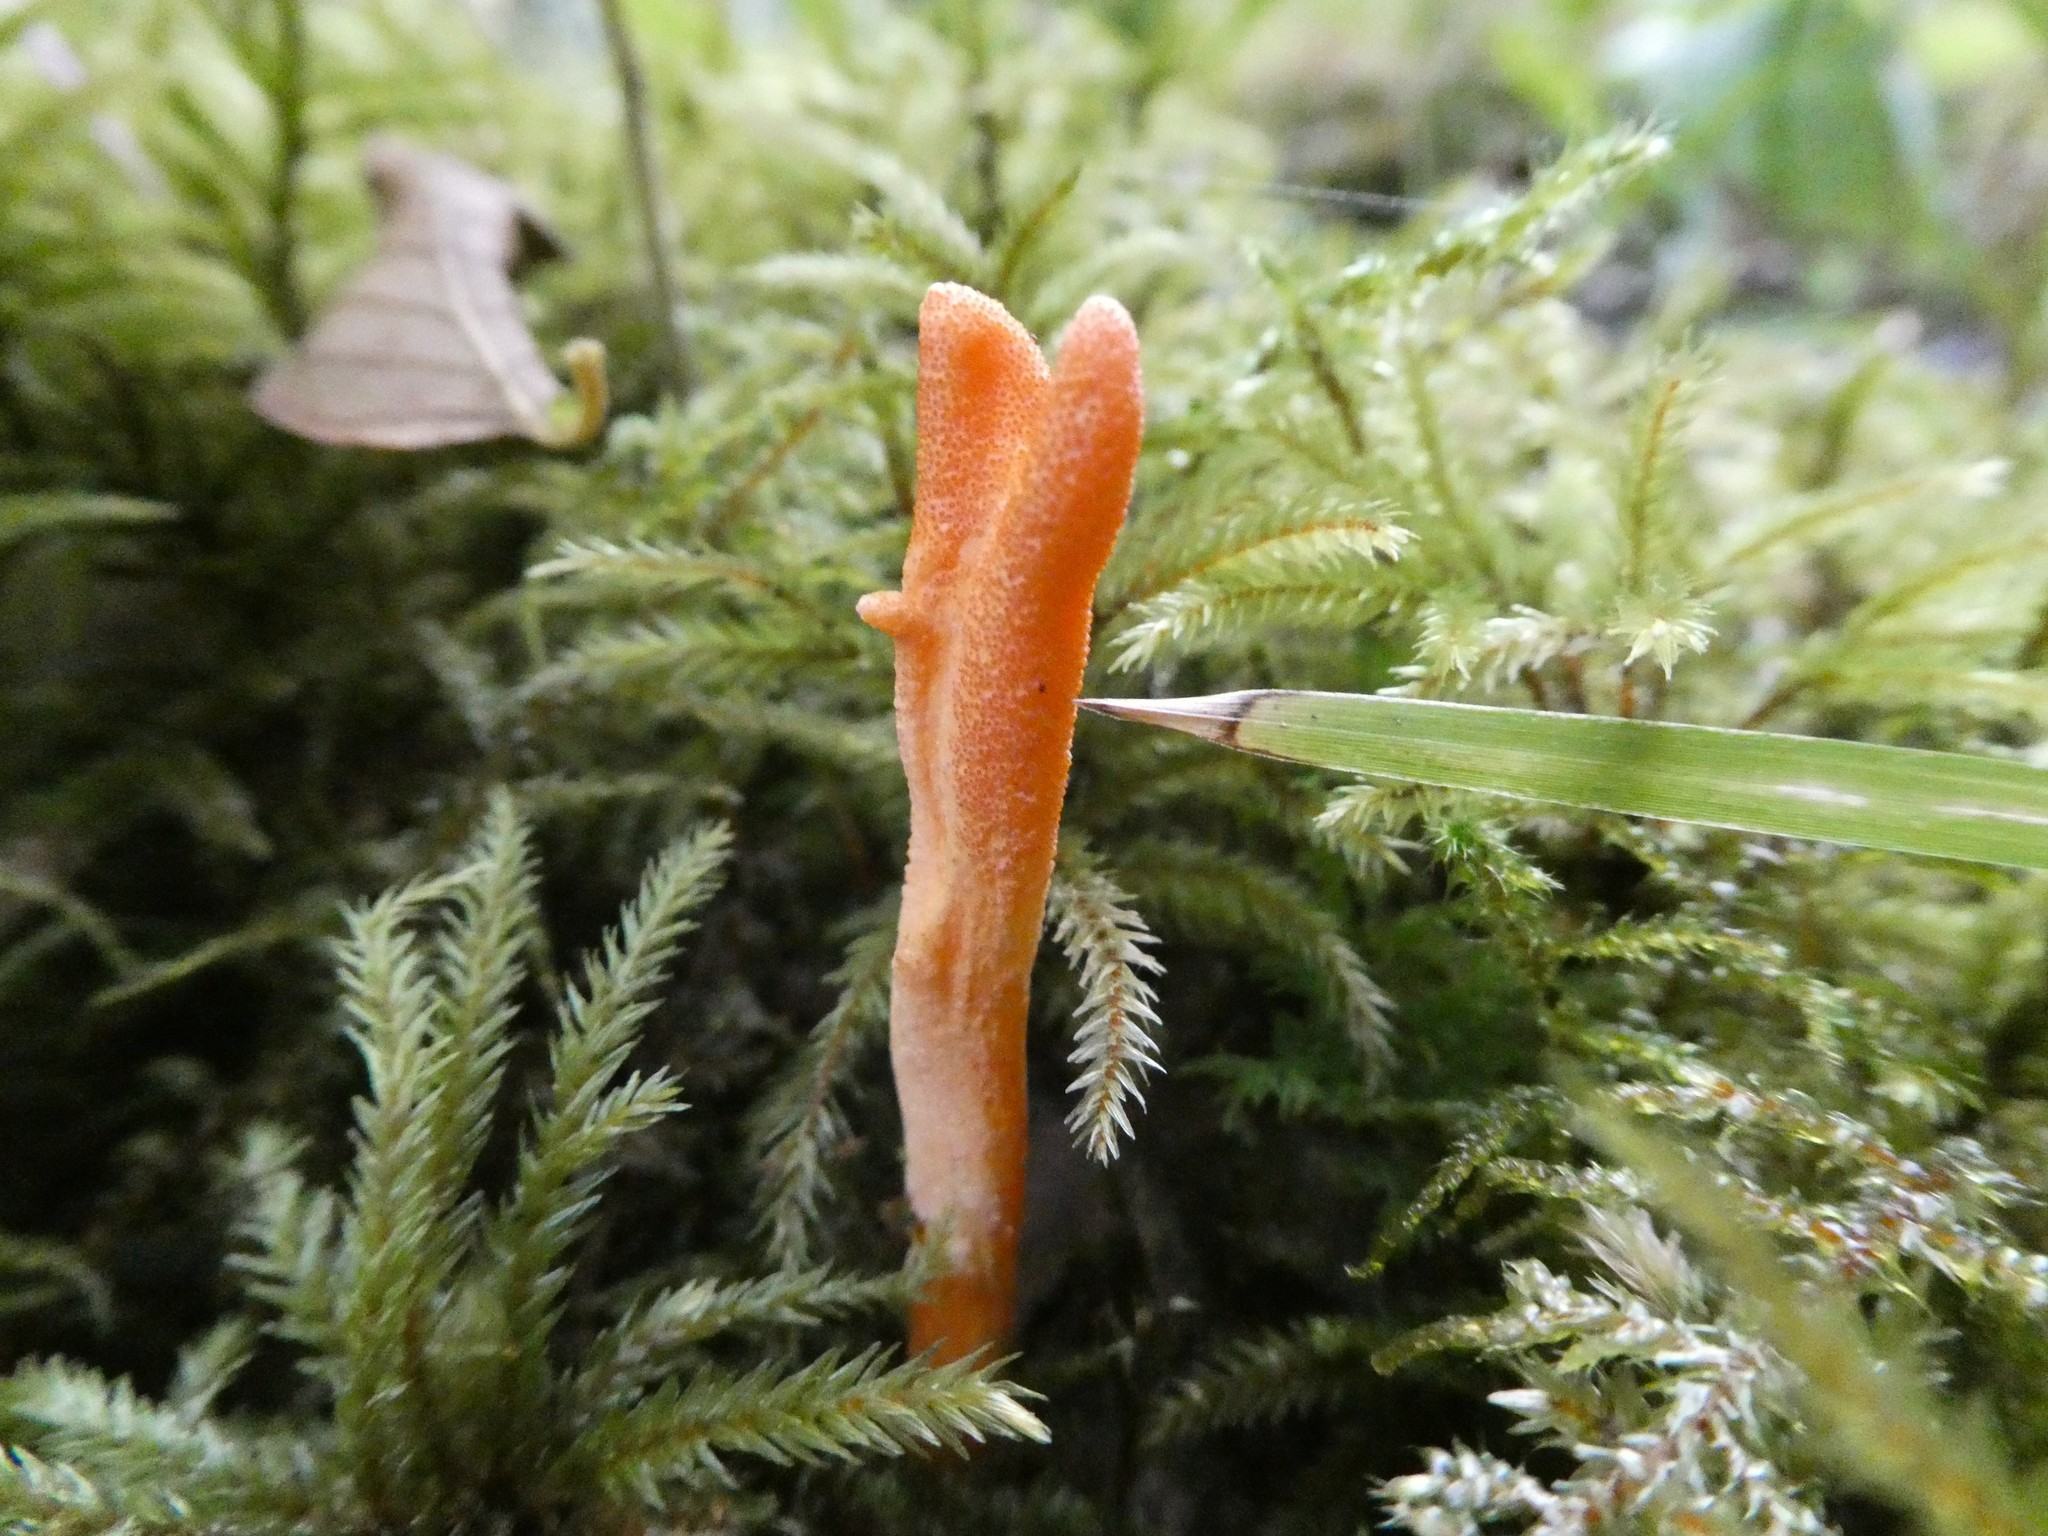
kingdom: Fungi
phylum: Ascomycota
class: Sordariomycetes
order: Hypocreales
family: Cordycipitaceae
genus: Cordyceps
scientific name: Cordyceps militaris
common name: Scarlet caterpillar fungus
